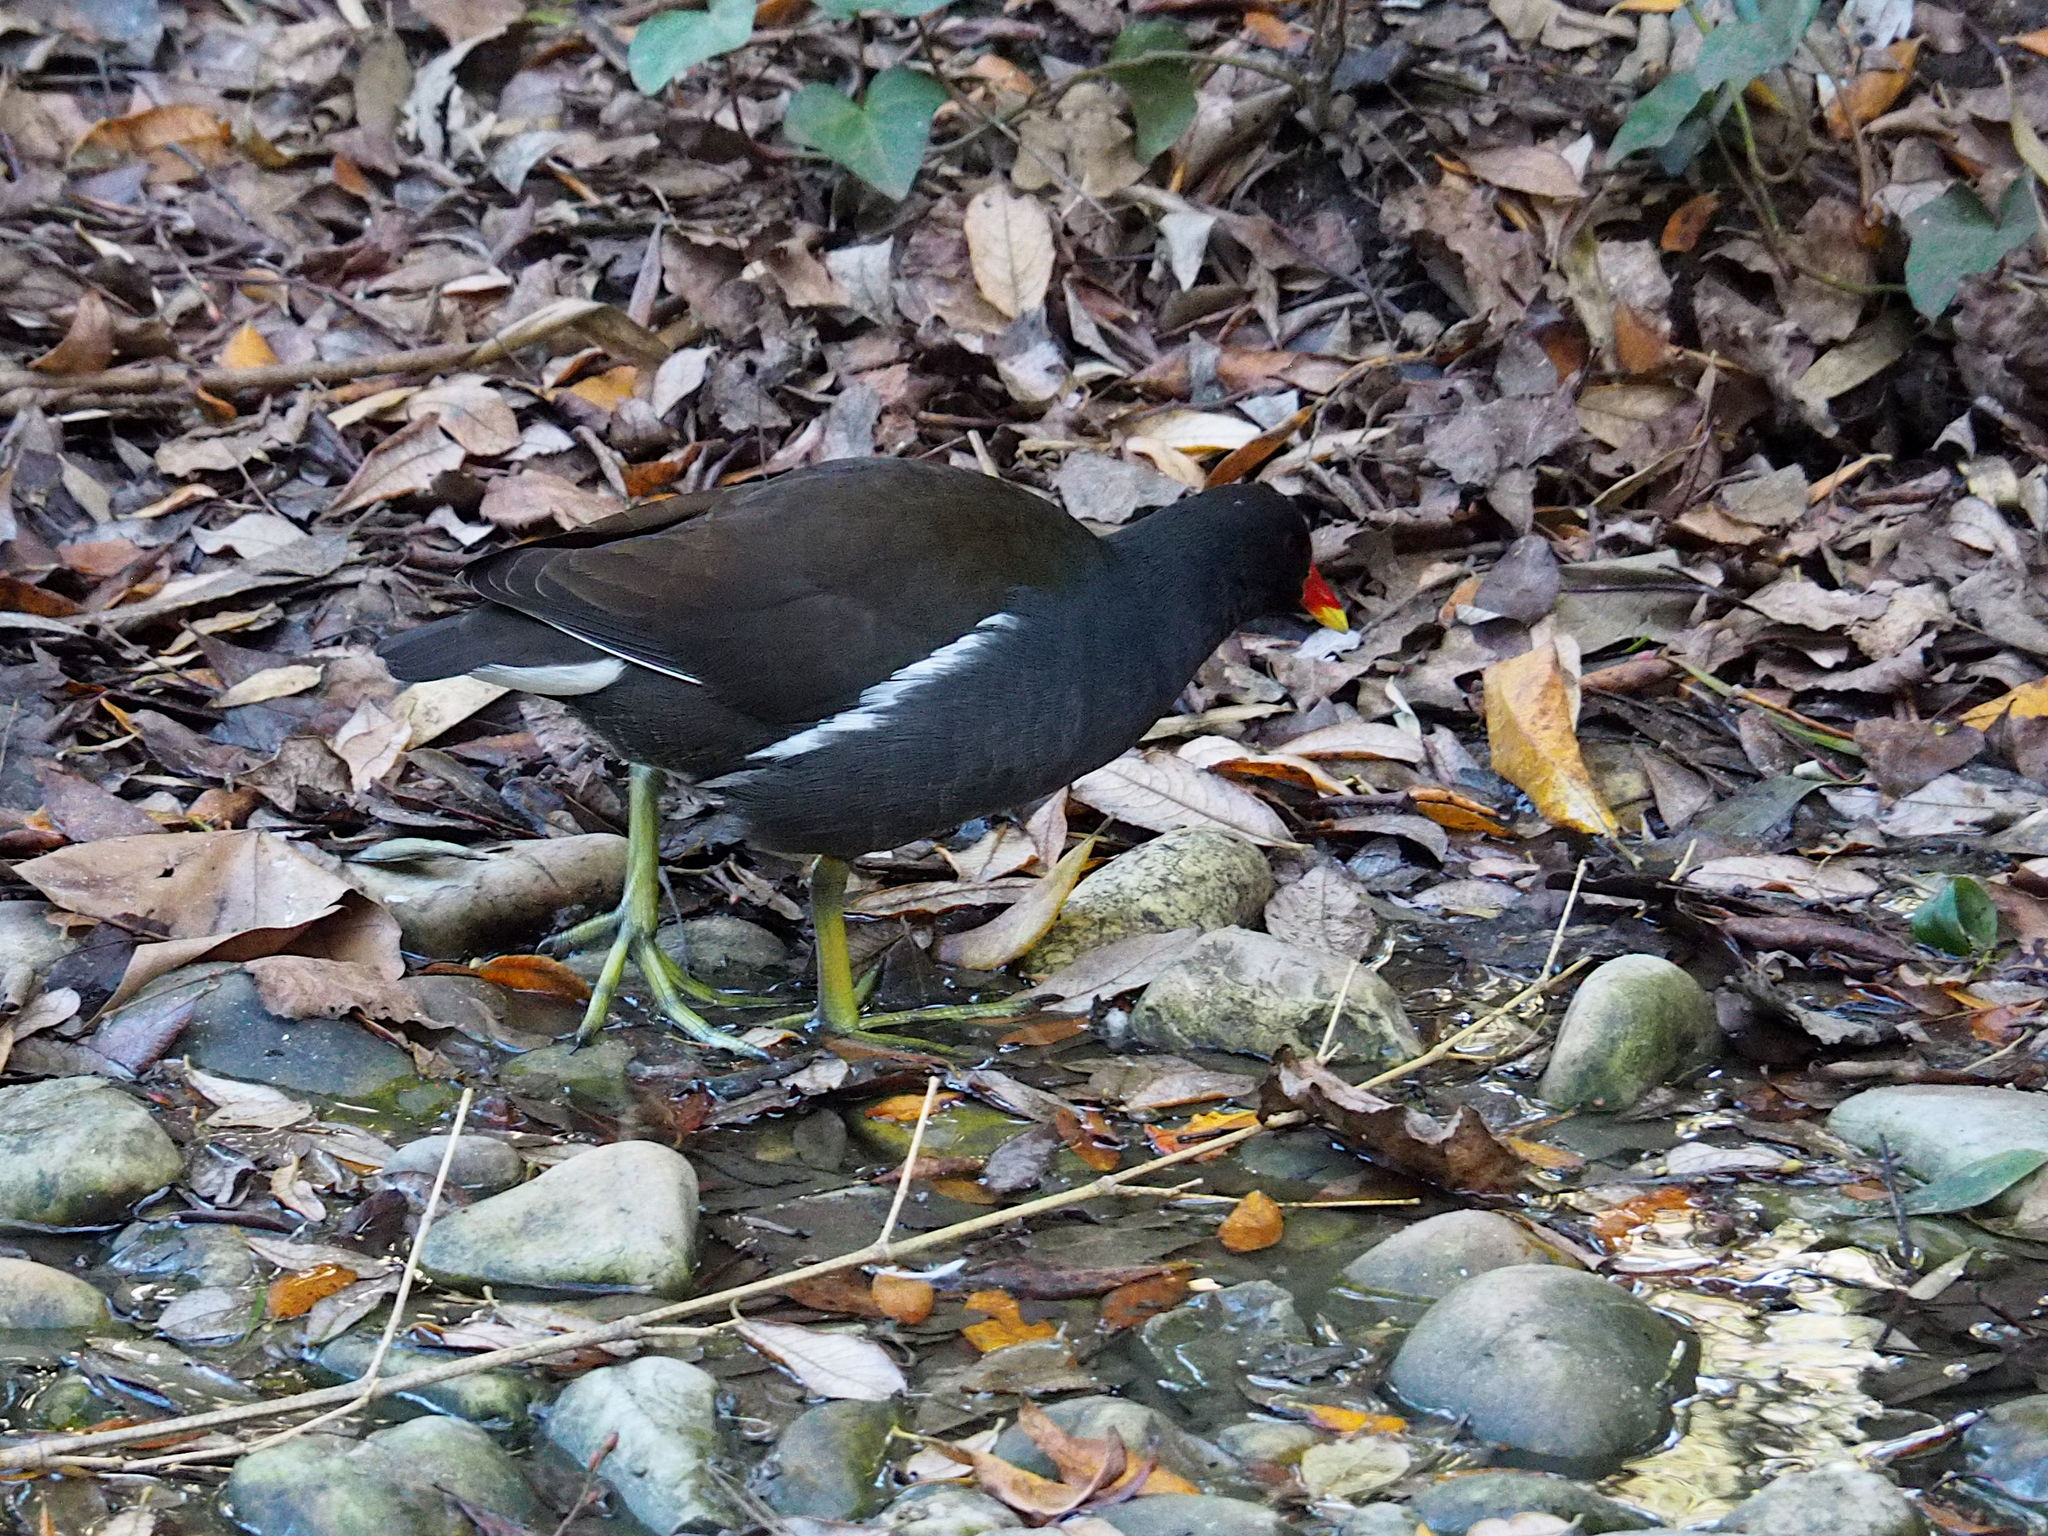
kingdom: Animalia
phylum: Chordata
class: Aves
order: Gruiformes
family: Rallidae
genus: Gallinula
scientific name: Gallinula chloropus
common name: Common moorhen
